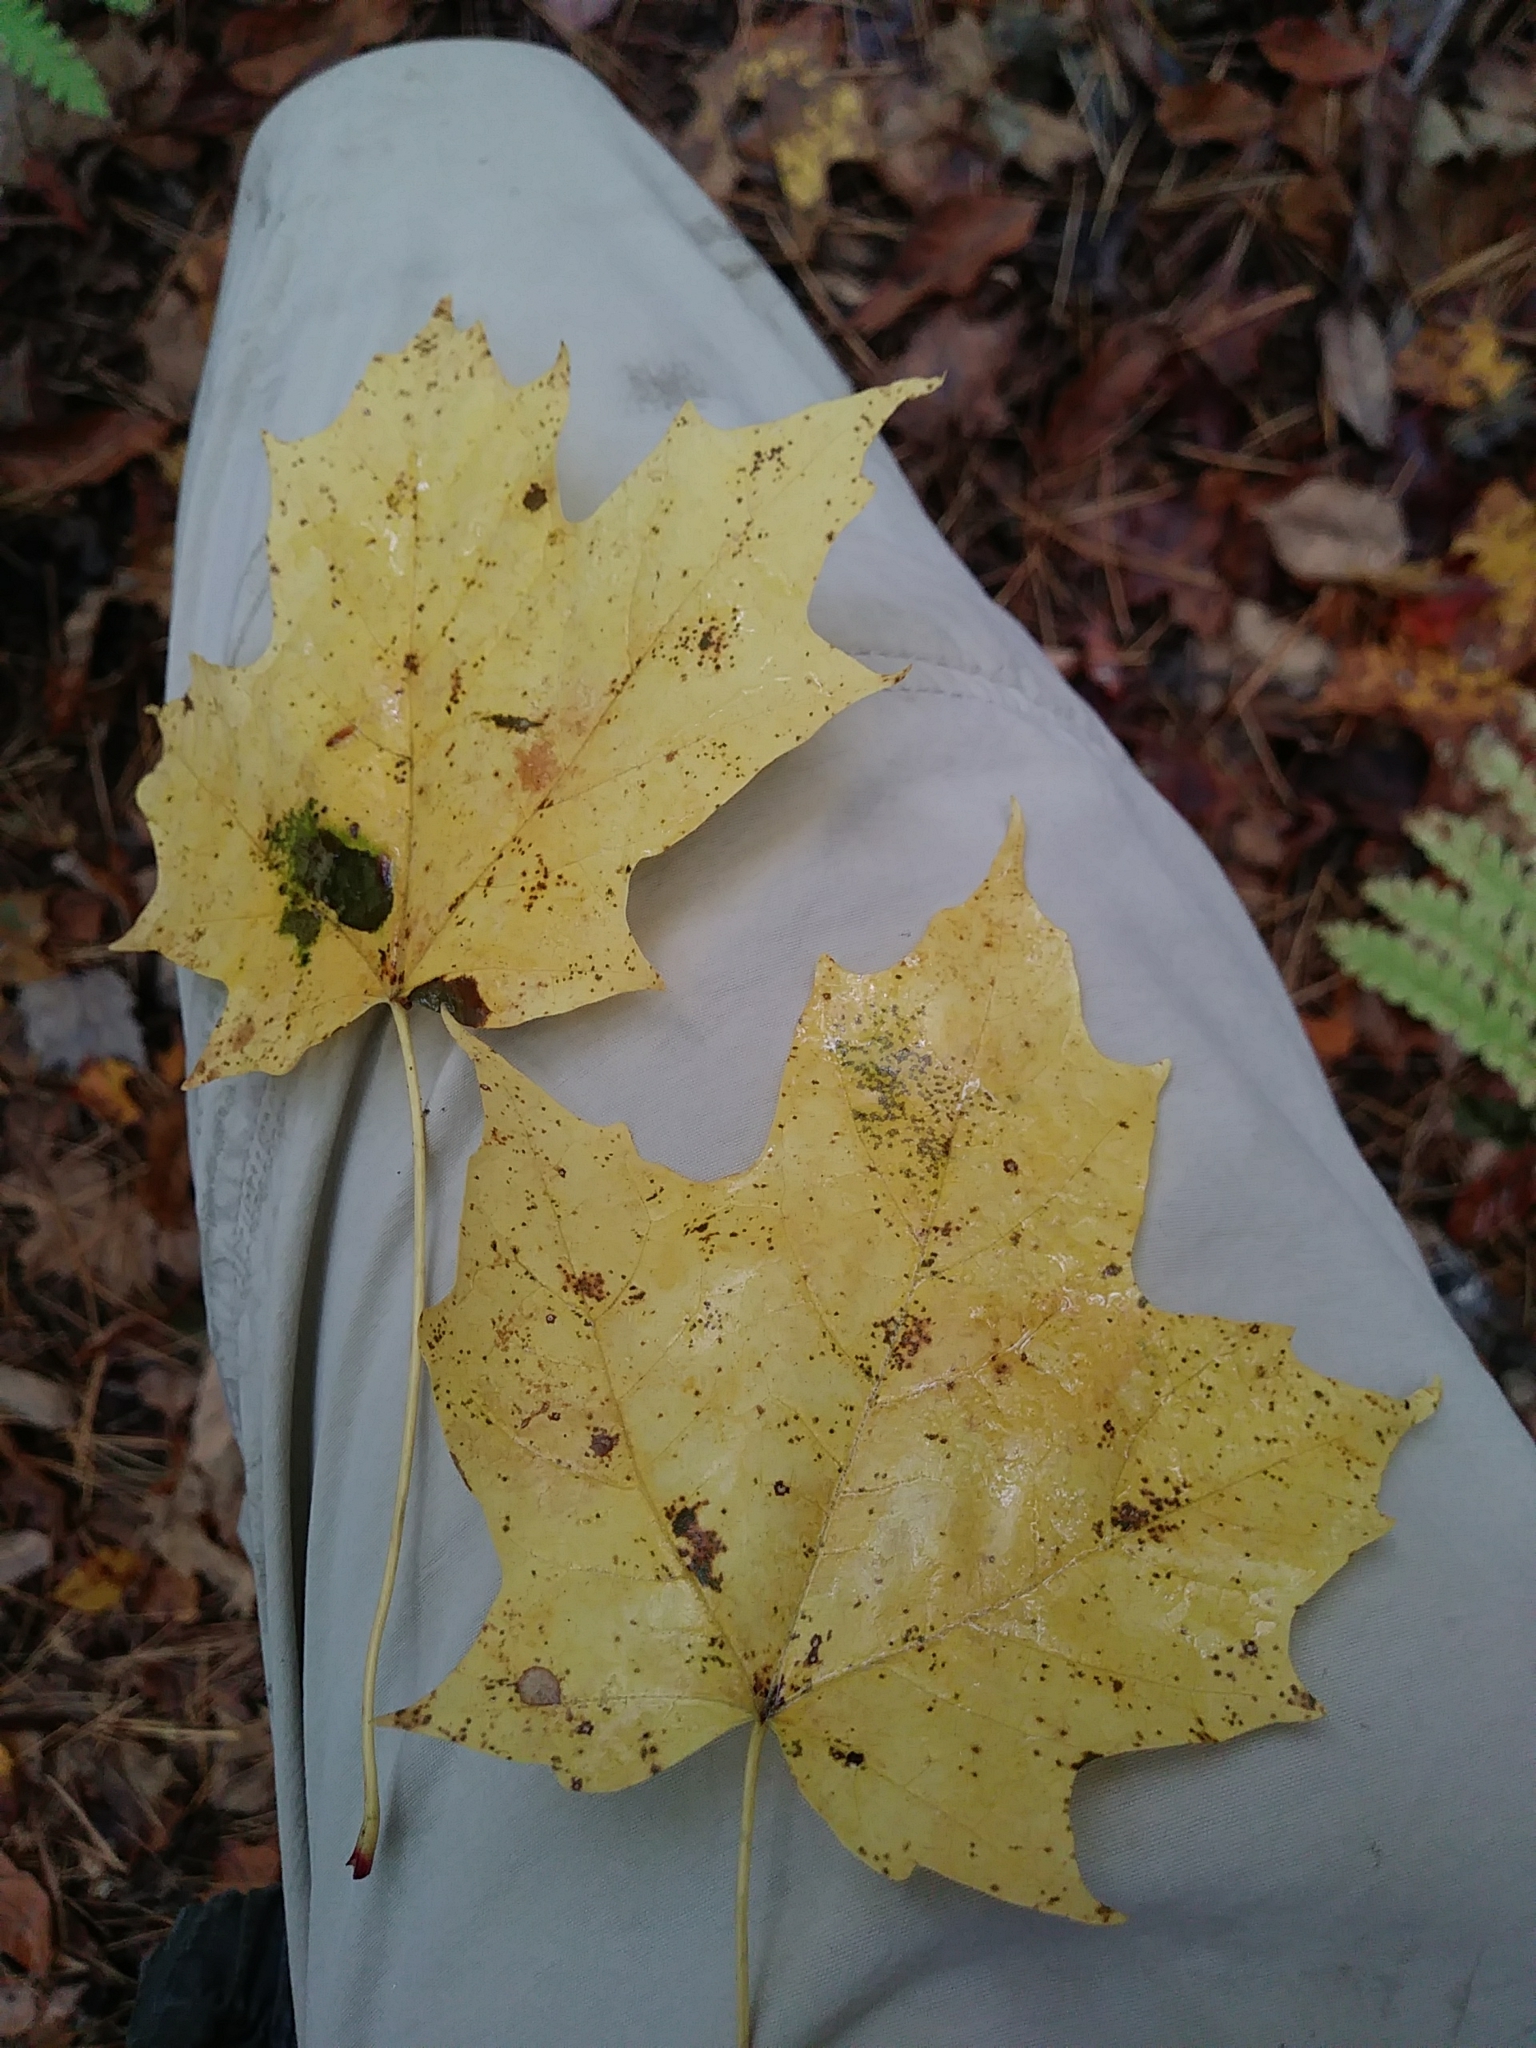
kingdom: Plantae
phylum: Tracheophyta
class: Magnoliopsida
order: Sapindales
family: Sapindaceae
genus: Acer
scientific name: Acer saccharum
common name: Sugar maple
